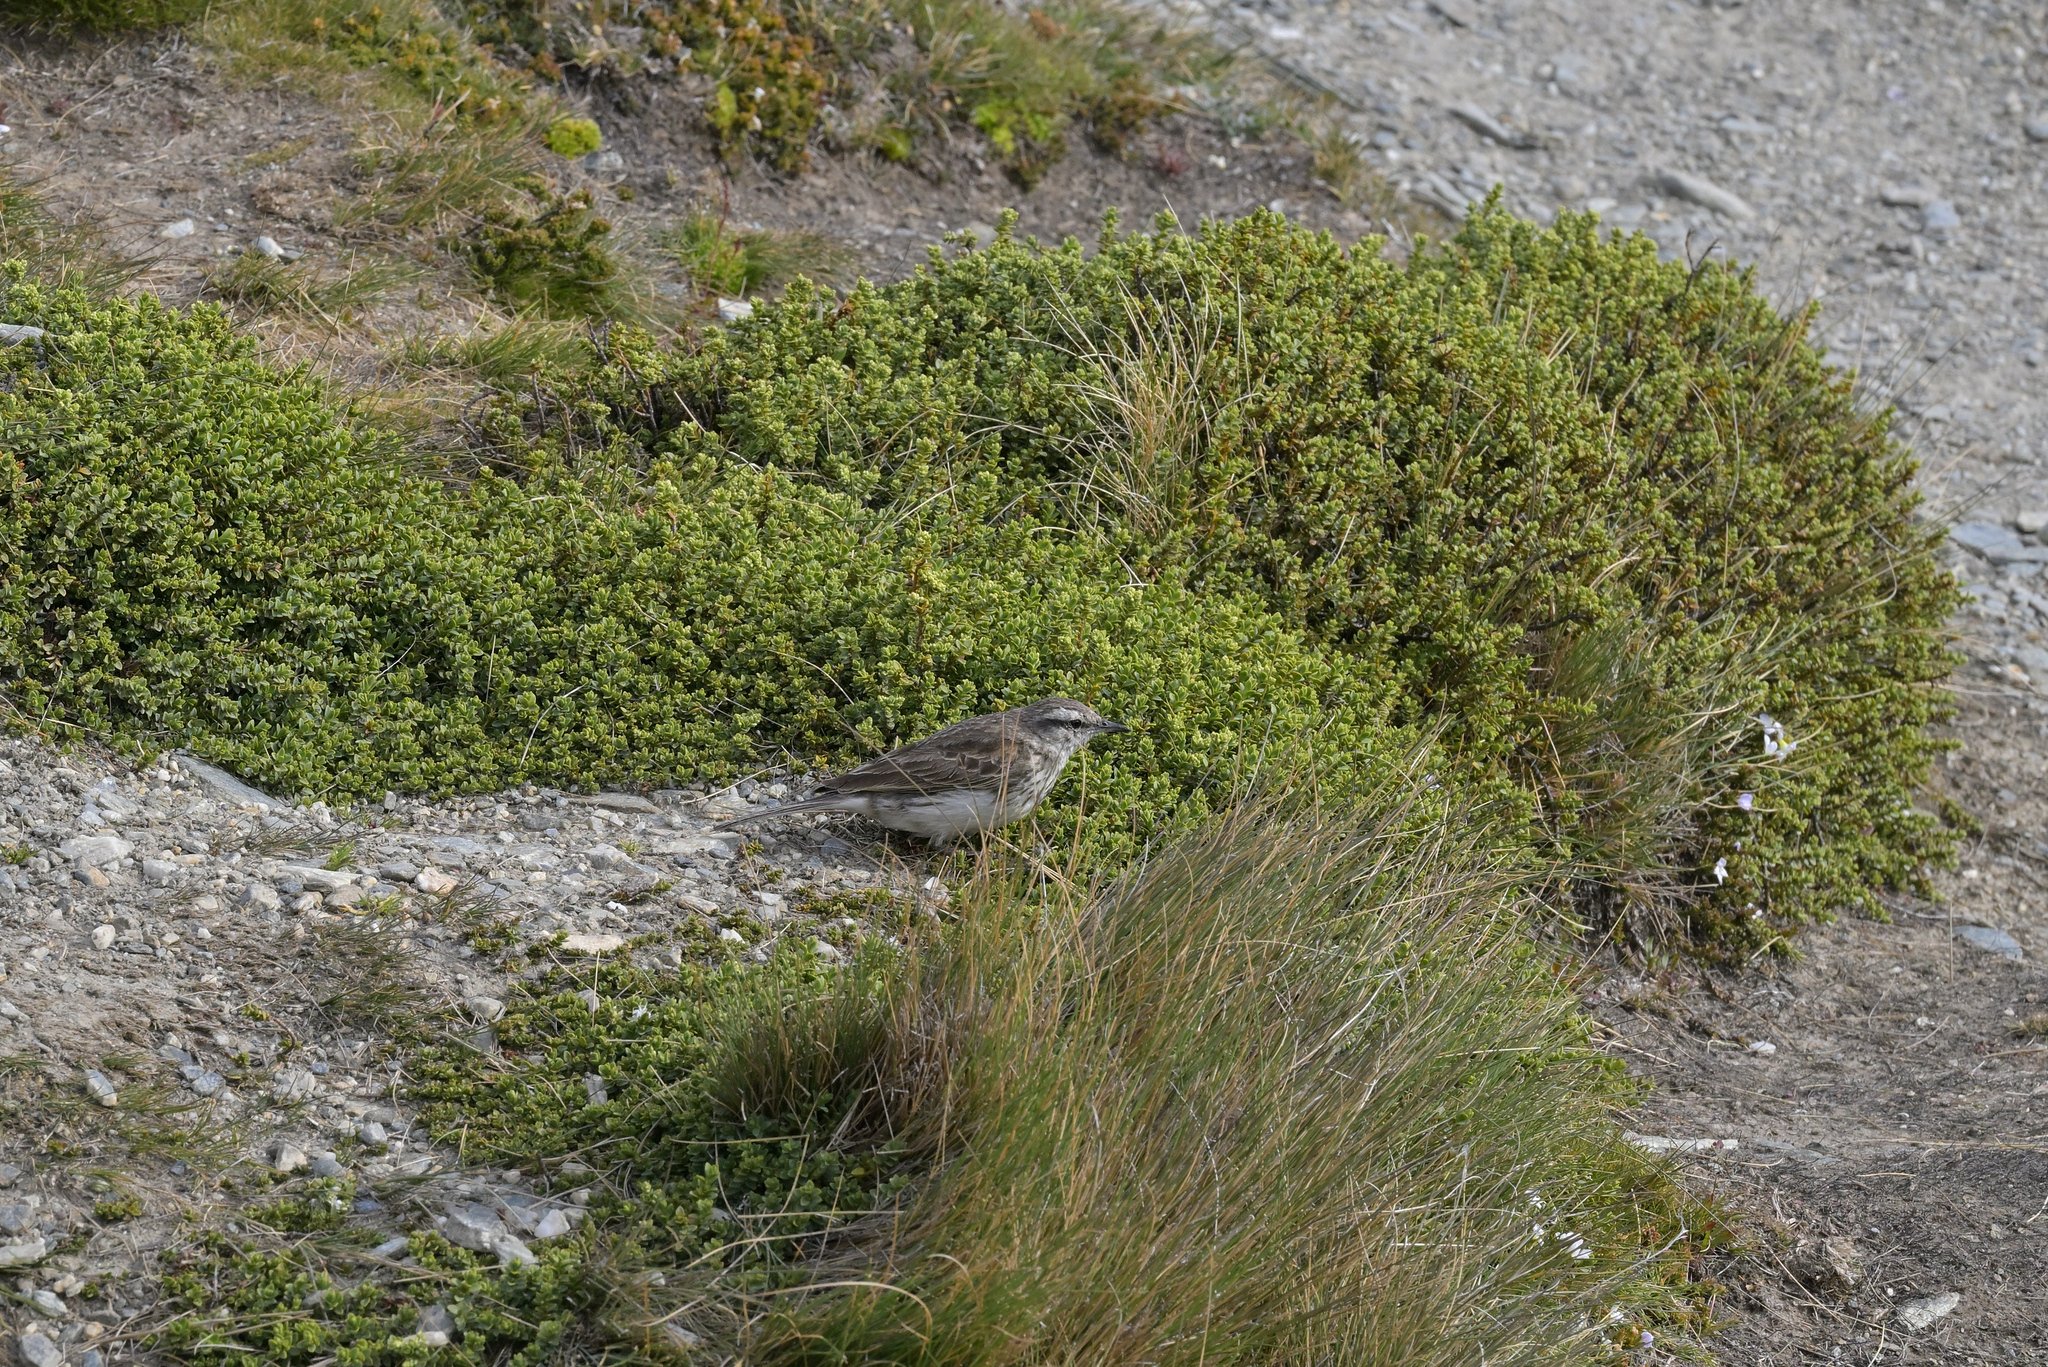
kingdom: Animalia
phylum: Chordata
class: Aves
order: Passeriformes
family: Motacillidae
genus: Anthus
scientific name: Anthus novaeseelandiae
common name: New zealand pipit
